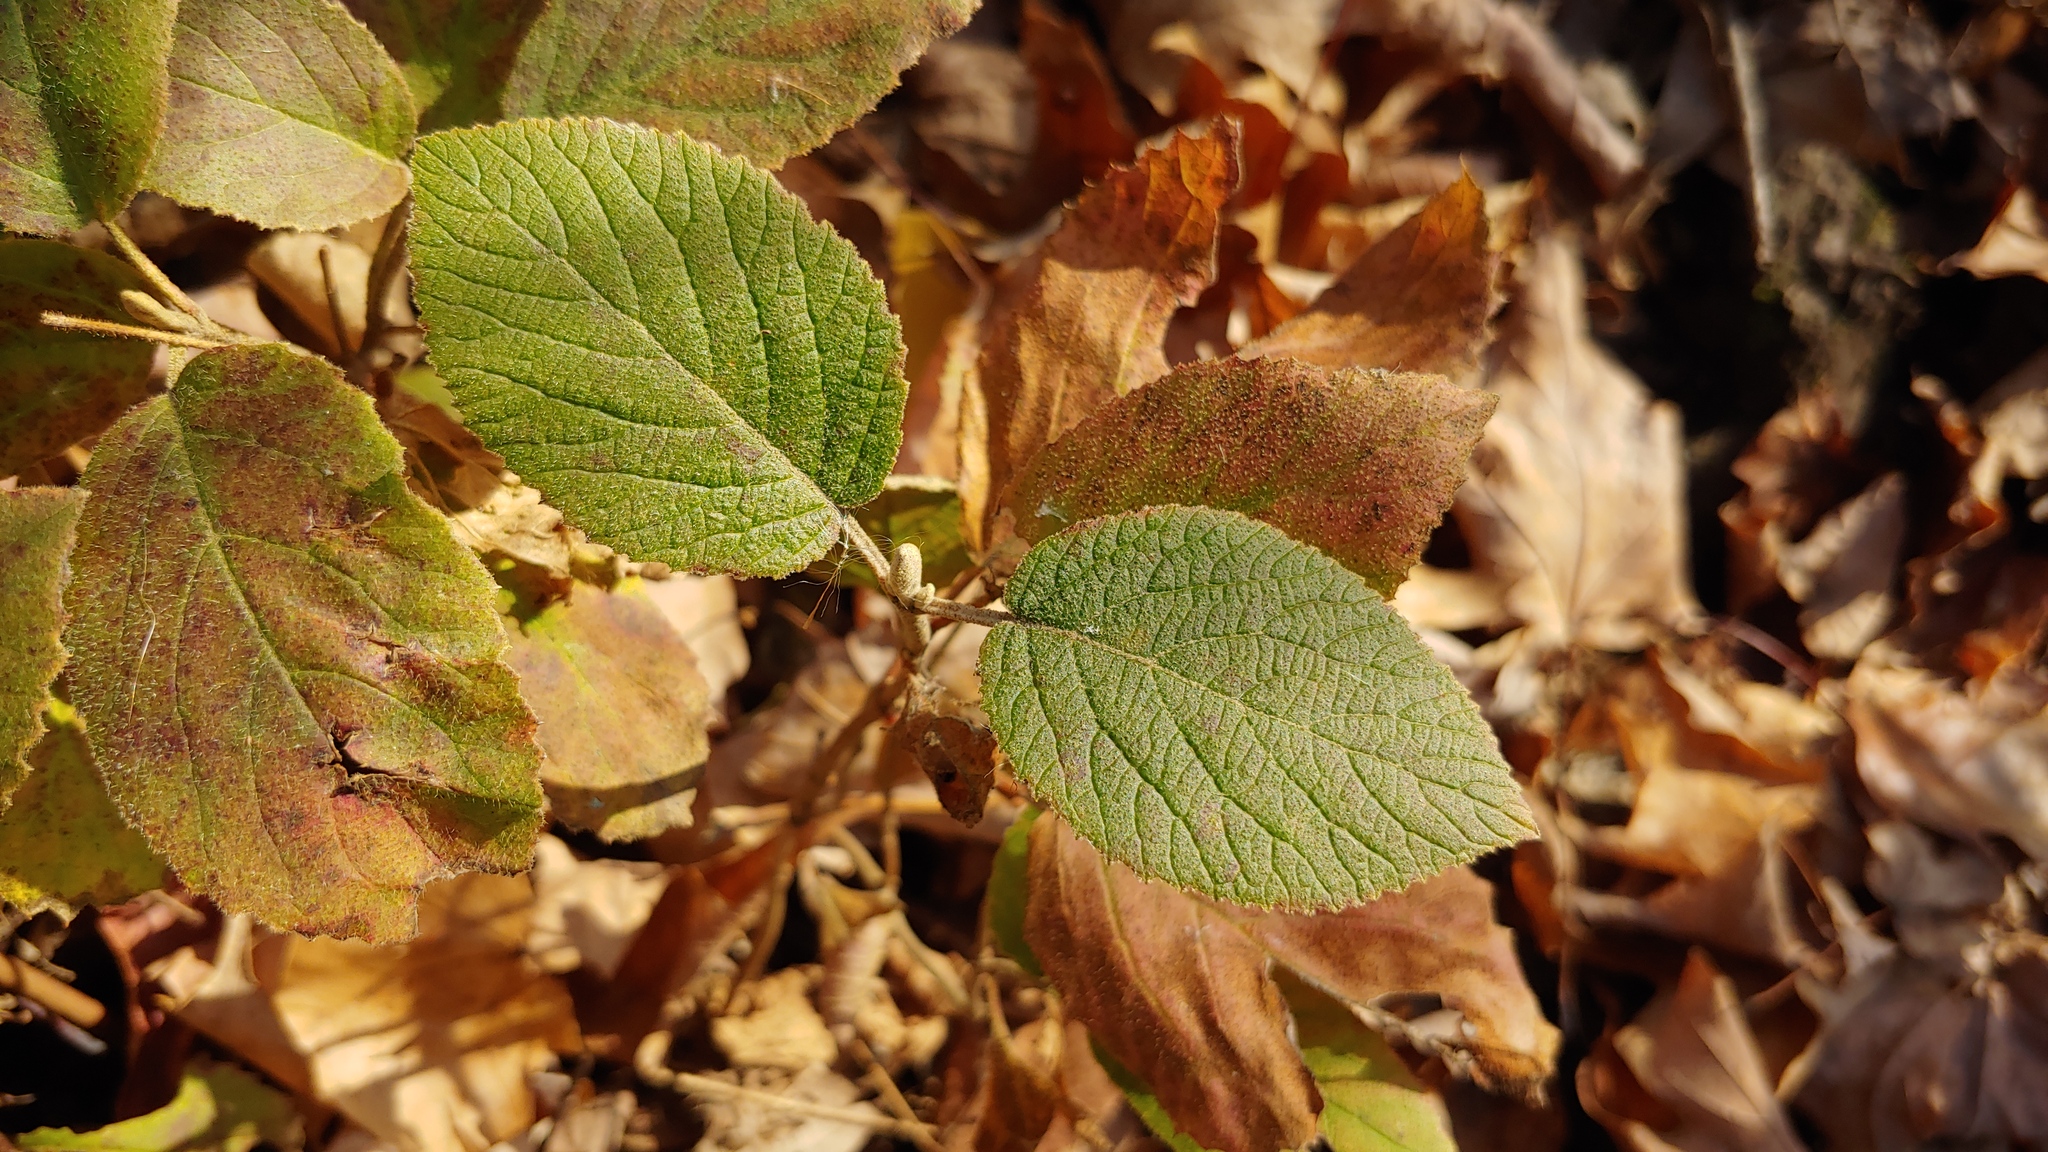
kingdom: Plantae
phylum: Tracheophyta
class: Magnoliopsida
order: Dipsacales
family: Viburnaceae
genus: Viburnum
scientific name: Viburnum lantana
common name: Wayfaring tree
